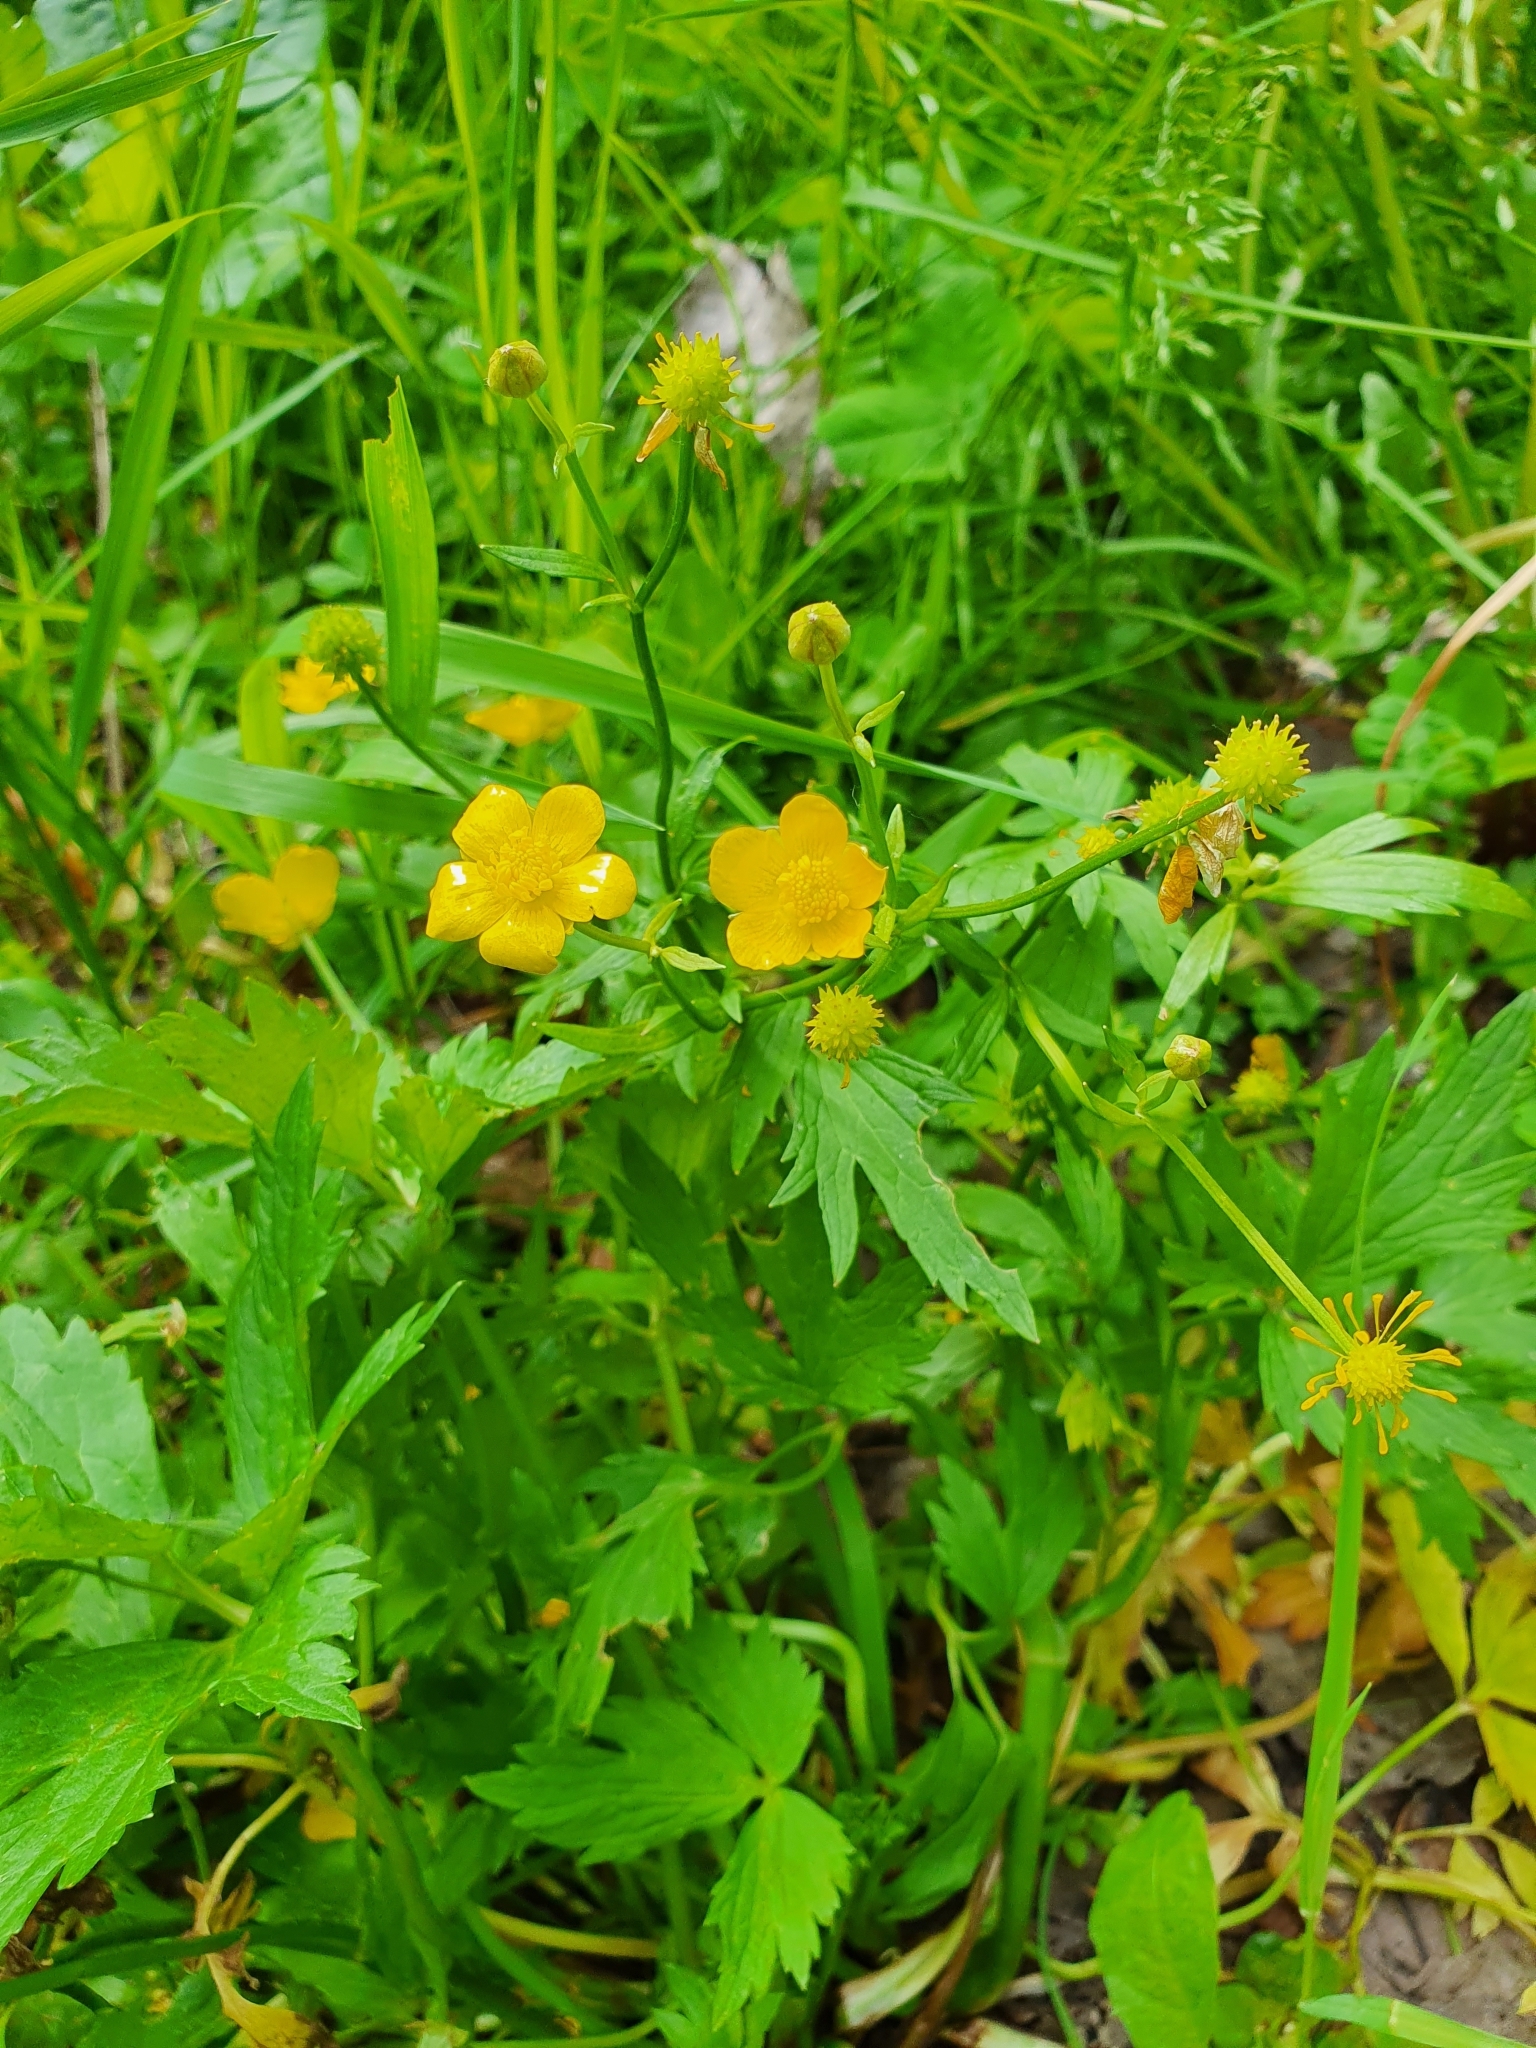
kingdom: Plantae
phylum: Tracheophyta
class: Magnoliopsida
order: Ranunculales
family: Ranunculaceae
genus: Ranunculus
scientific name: Ranunculus repens
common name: Creeping buttercup
